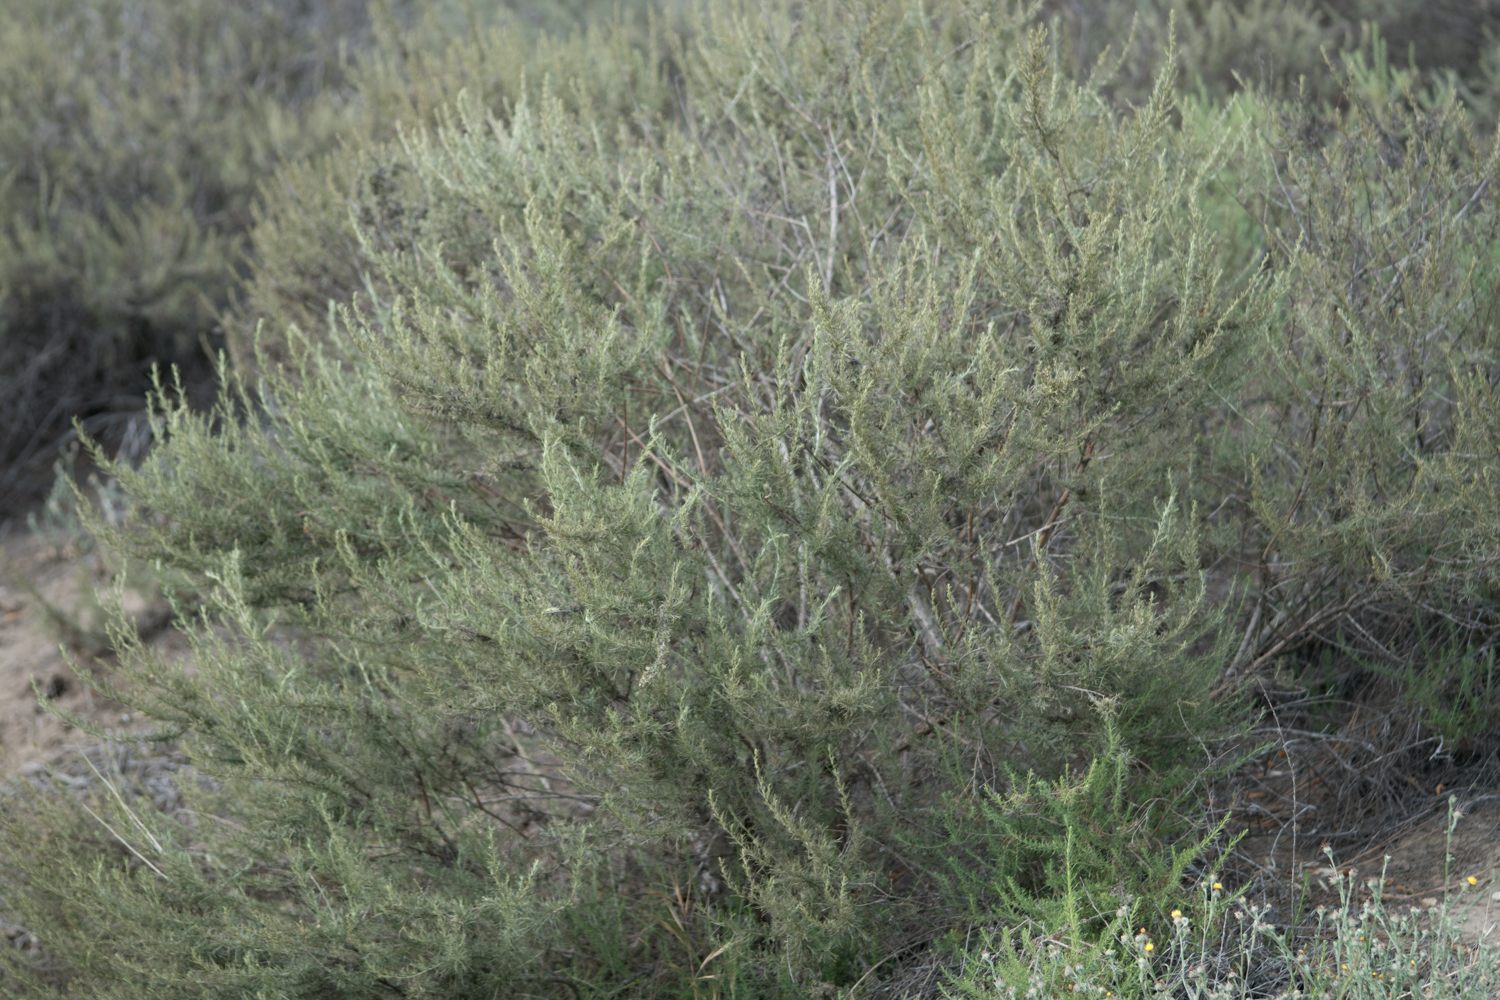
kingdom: Plantae
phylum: Tracheophyta
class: Magnoliopsida
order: Asterales
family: Asteraceae
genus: Artemisia
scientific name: Artemisia californica
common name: California sagebrush
